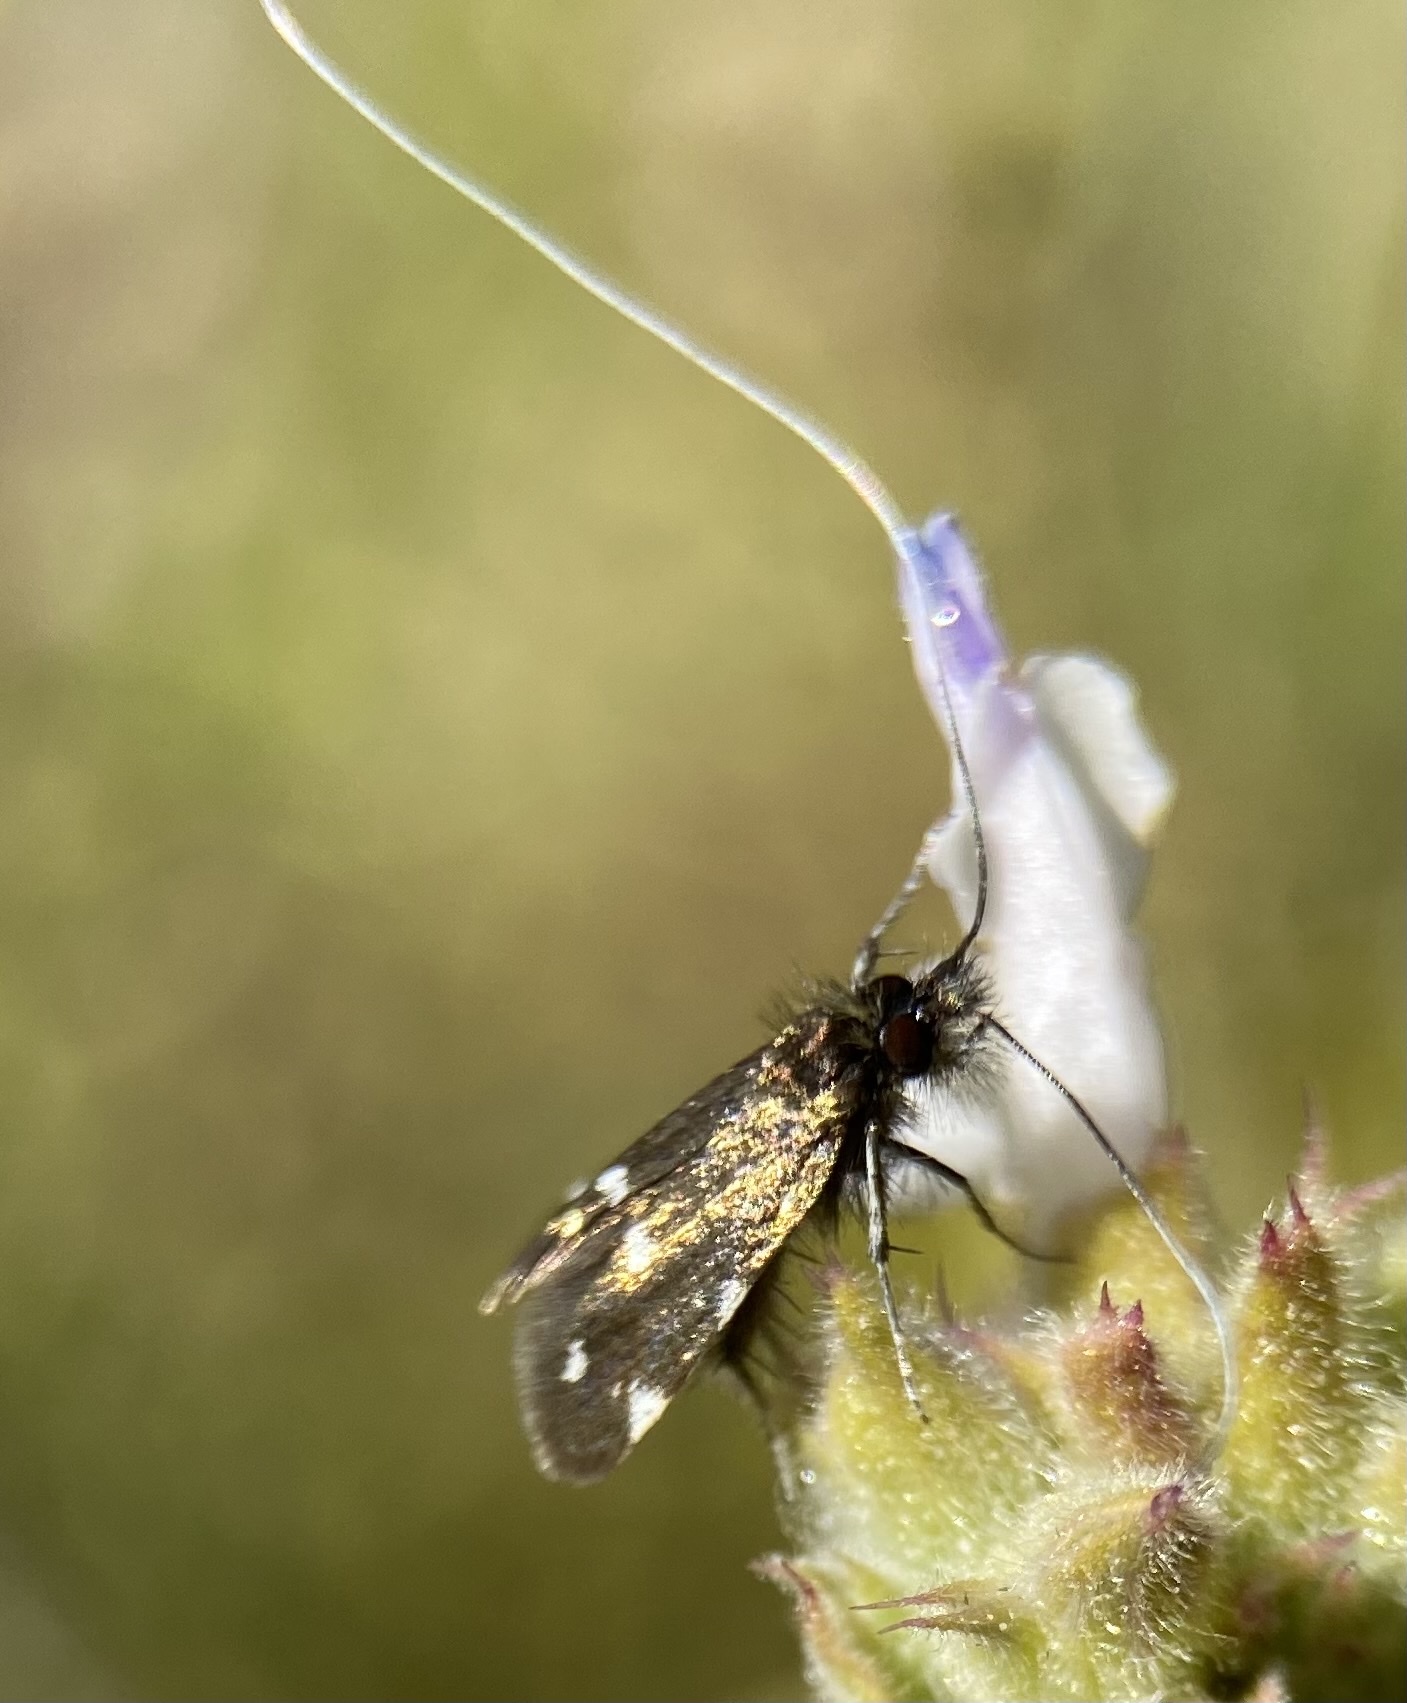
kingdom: Animalia
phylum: Arthropoda
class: Insecta
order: Lepidoptera
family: Adelidae
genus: Adela
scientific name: Adela flammeusella
